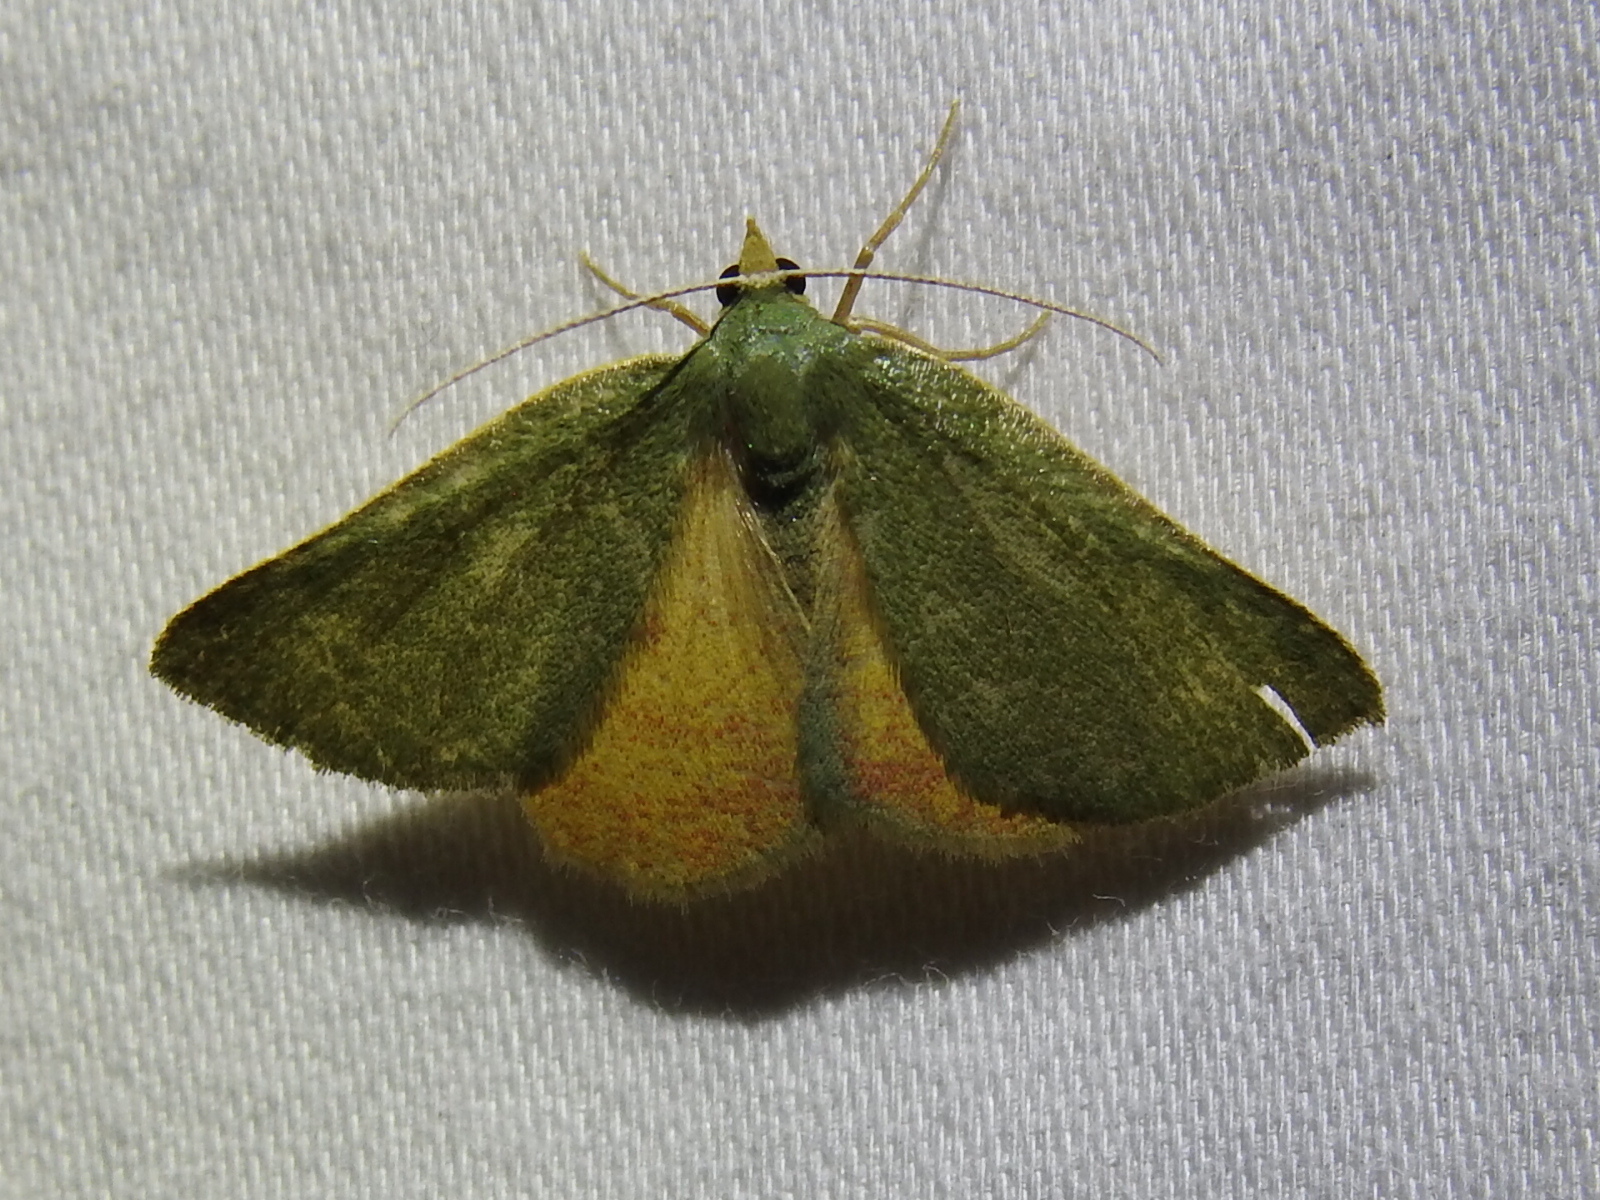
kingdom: Animalia
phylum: Arthropoda
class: Insecta
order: Lepidoptera
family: Geometridae
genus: Chloraspilates
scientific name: Chloraspilates bicoloraria
